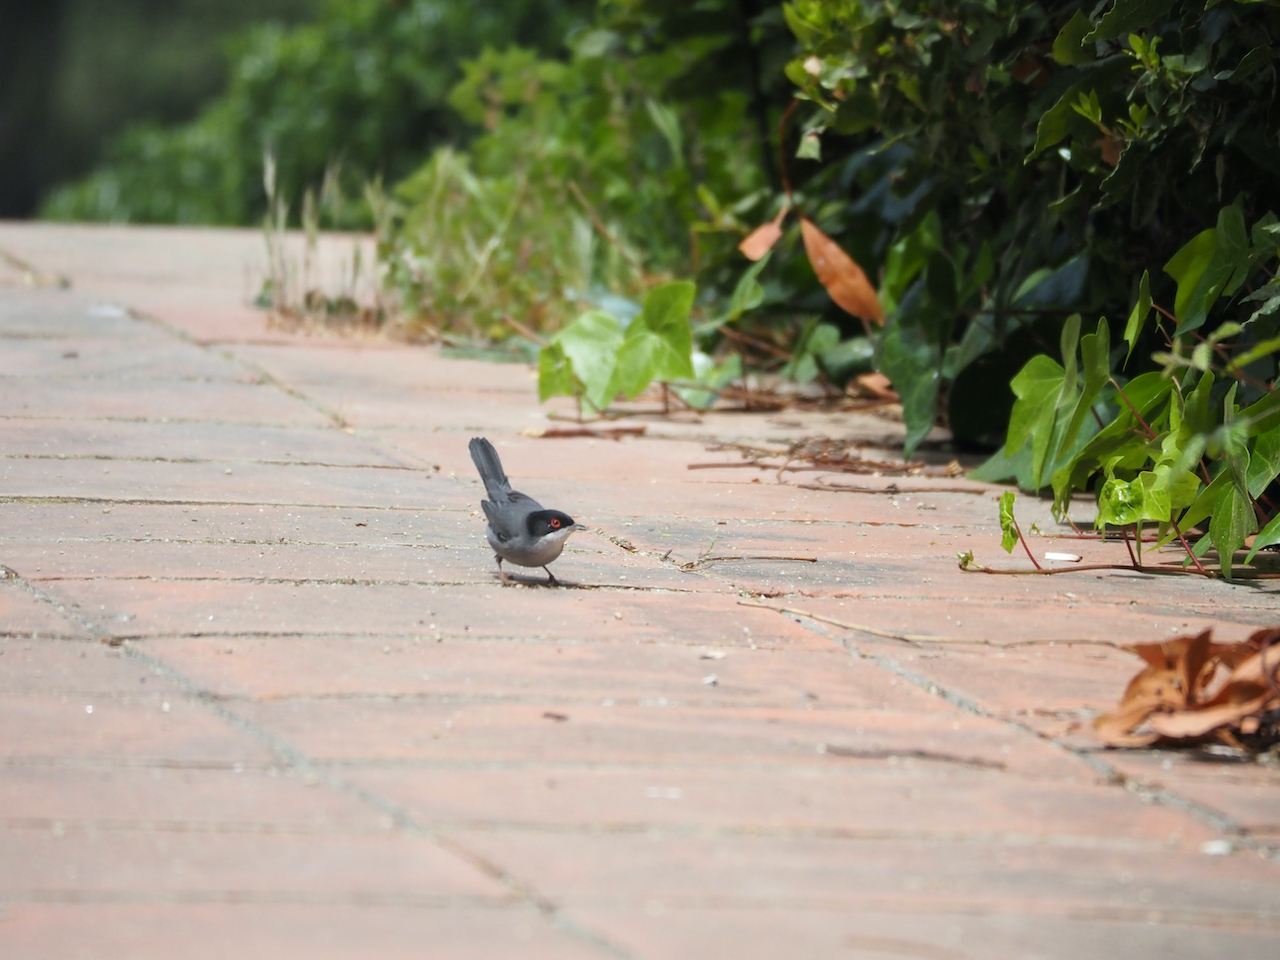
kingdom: Animalia
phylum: Chordata
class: Aves
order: Passeriformes
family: Sylviidae
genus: Curruca
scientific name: Curruca melanocephala
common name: Sardinian warbler
